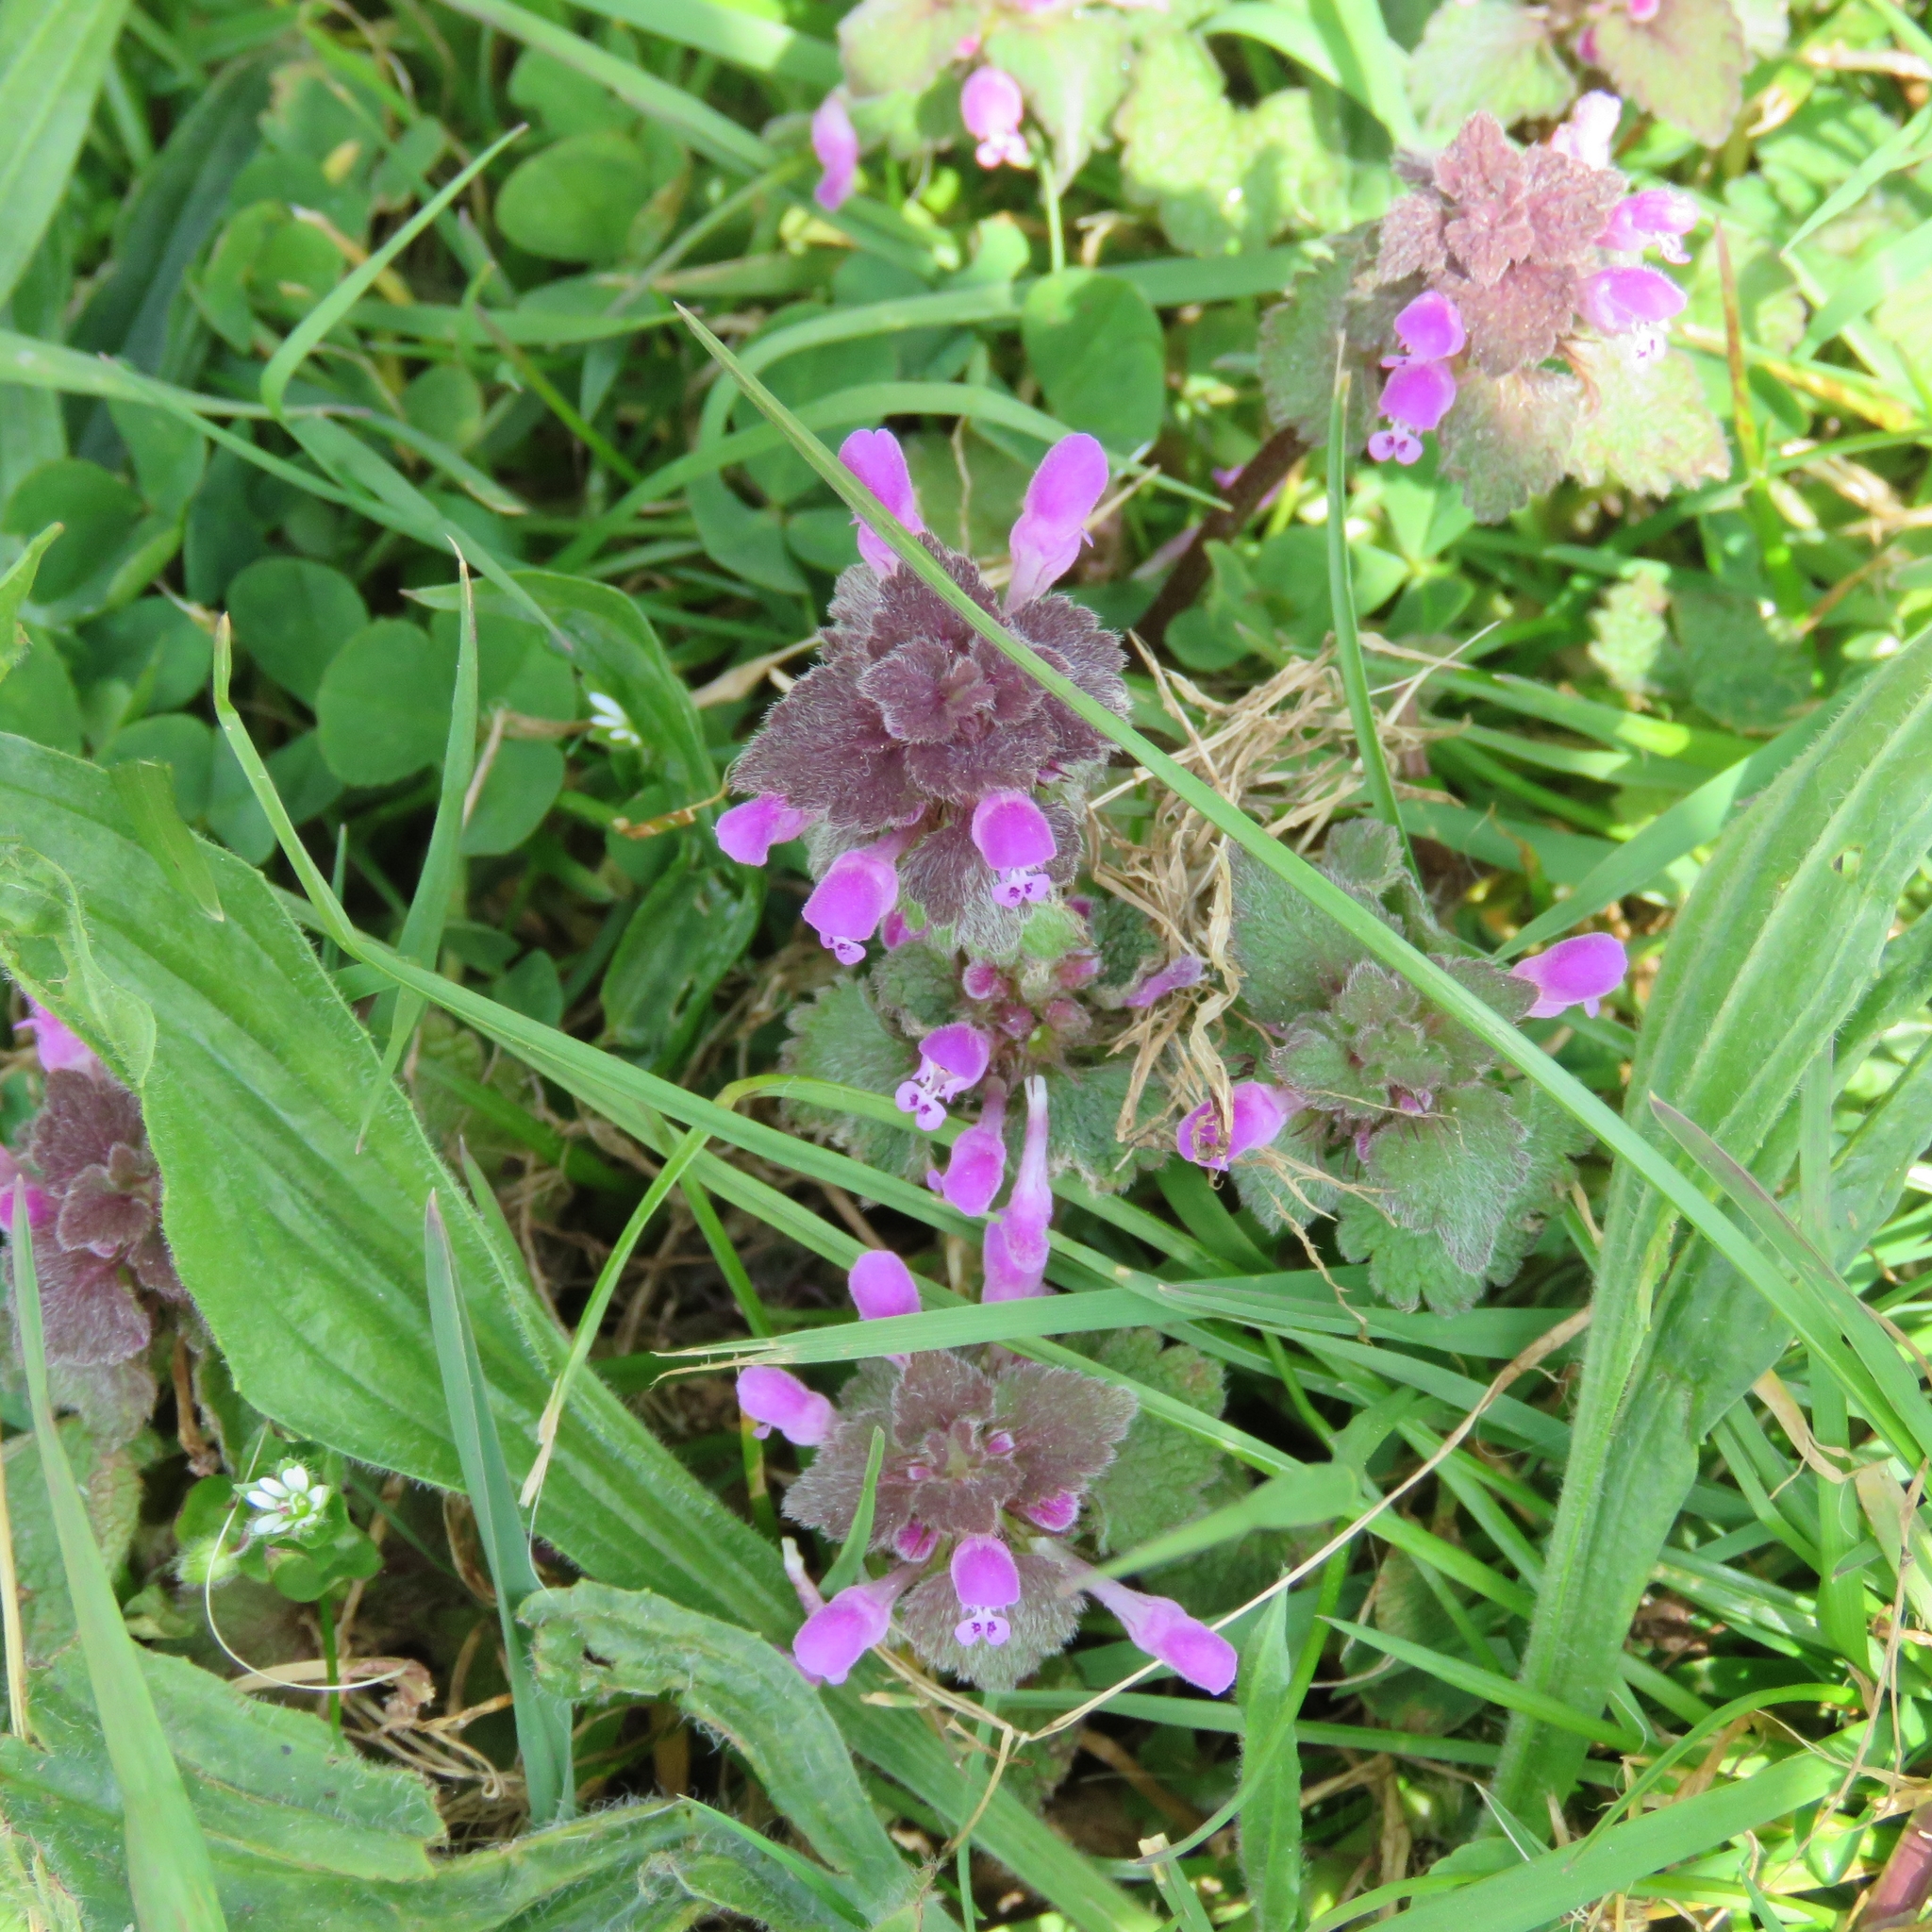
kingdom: Plantae
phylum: Tracheophyta
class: Magnoliopsida
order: Lamiales
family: Lamiaceae
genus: Lamium
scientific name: Lamium purpureum
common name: Red dead-nettle
